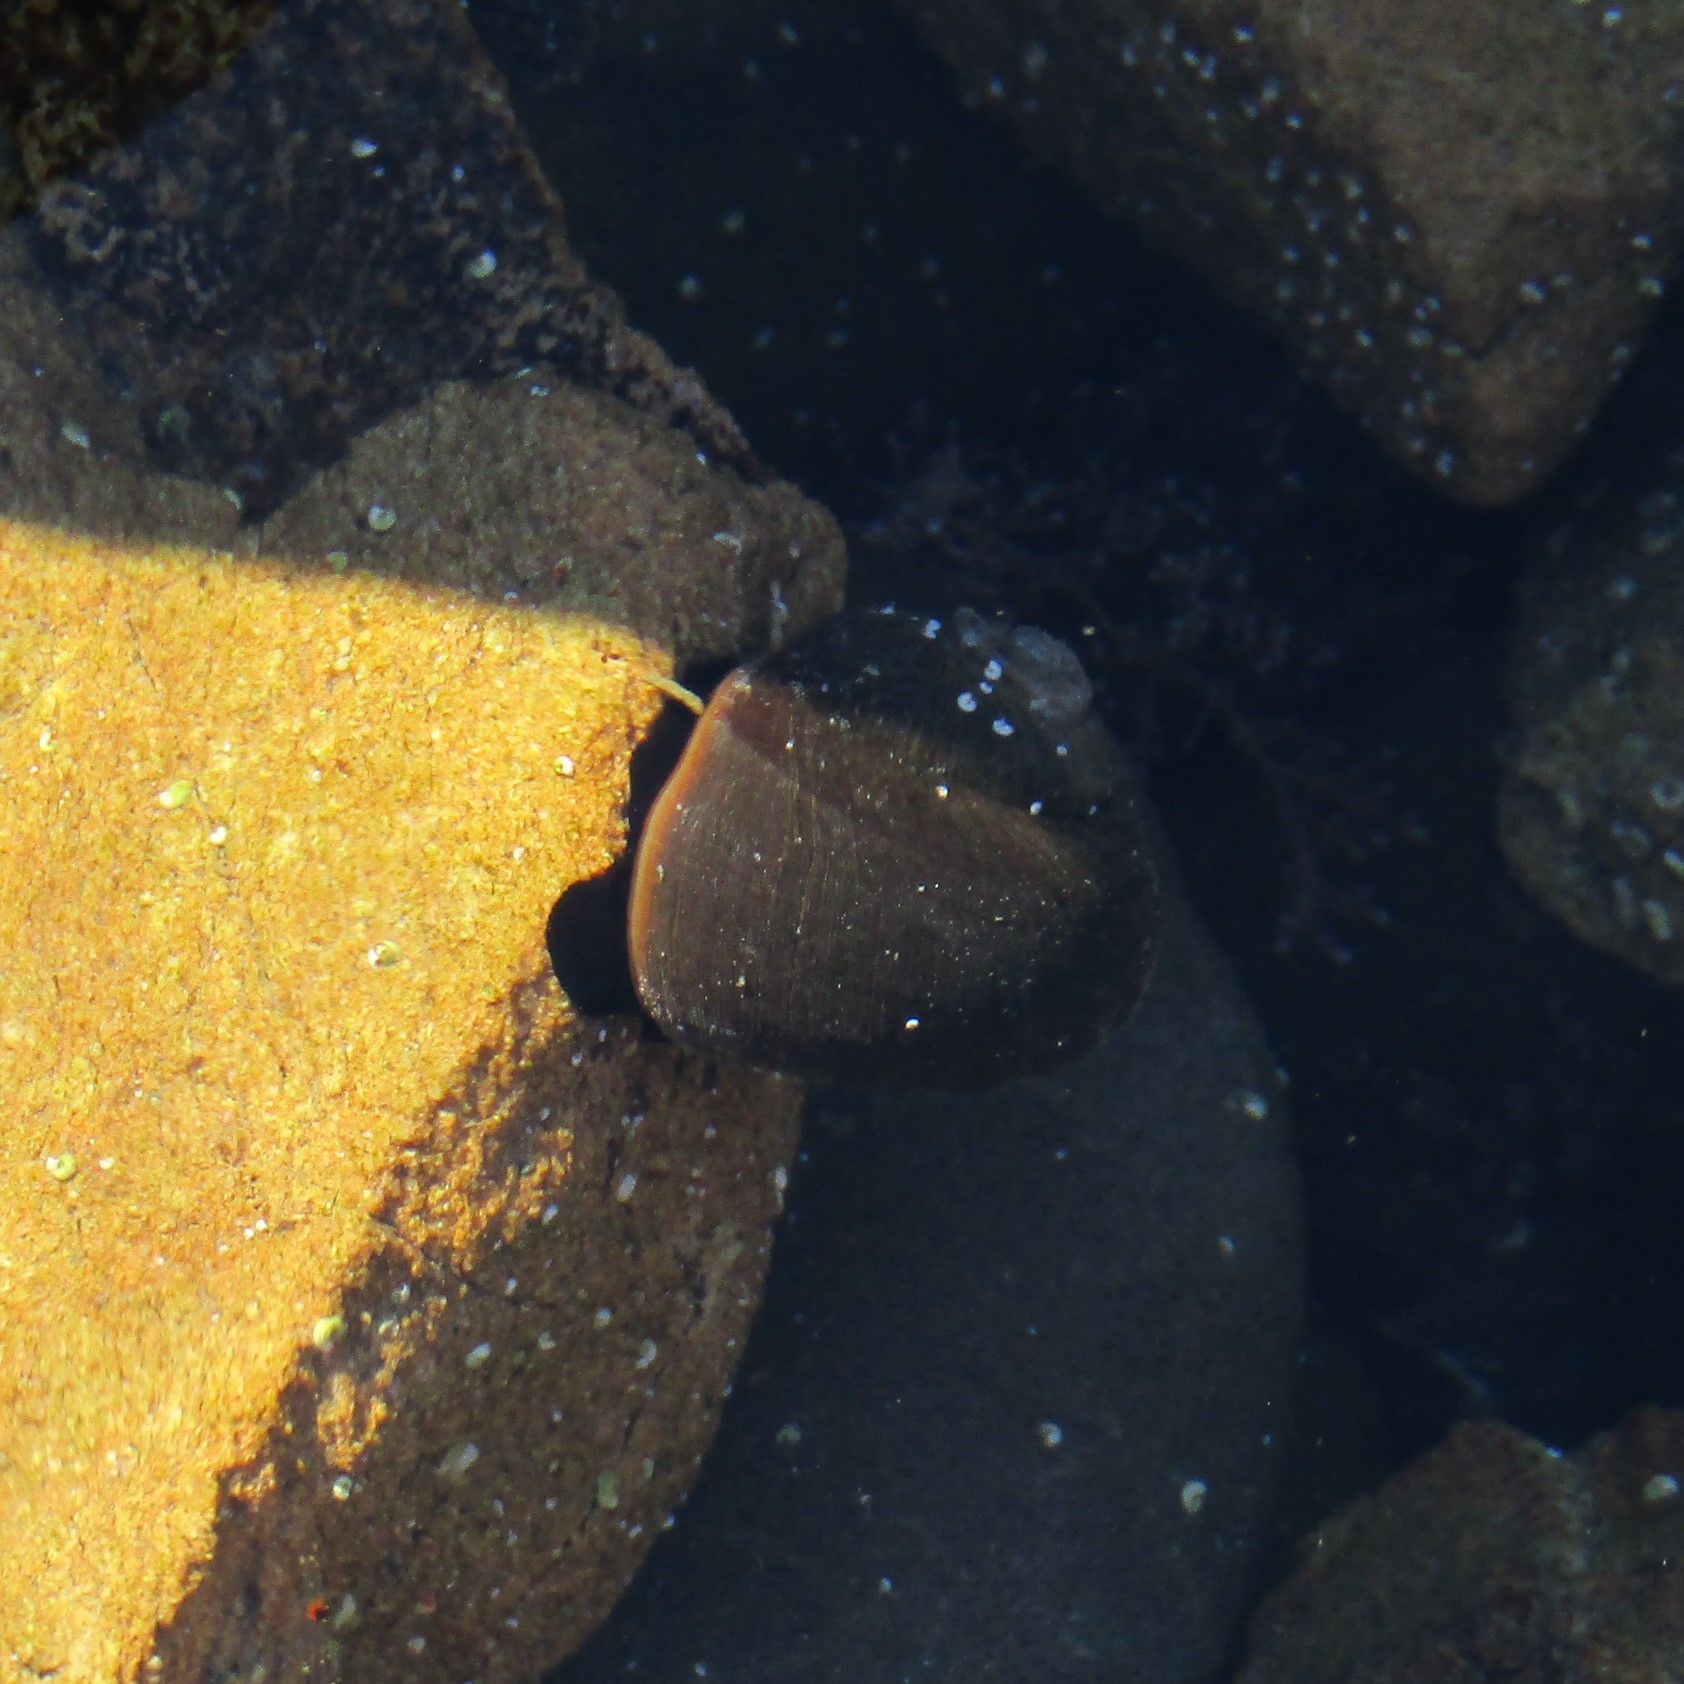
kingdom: Animalia
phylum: Mollusca
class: Gastropoda
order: Trochida
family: Turbinidae
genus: Lunella
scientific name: Lunella smaragda
